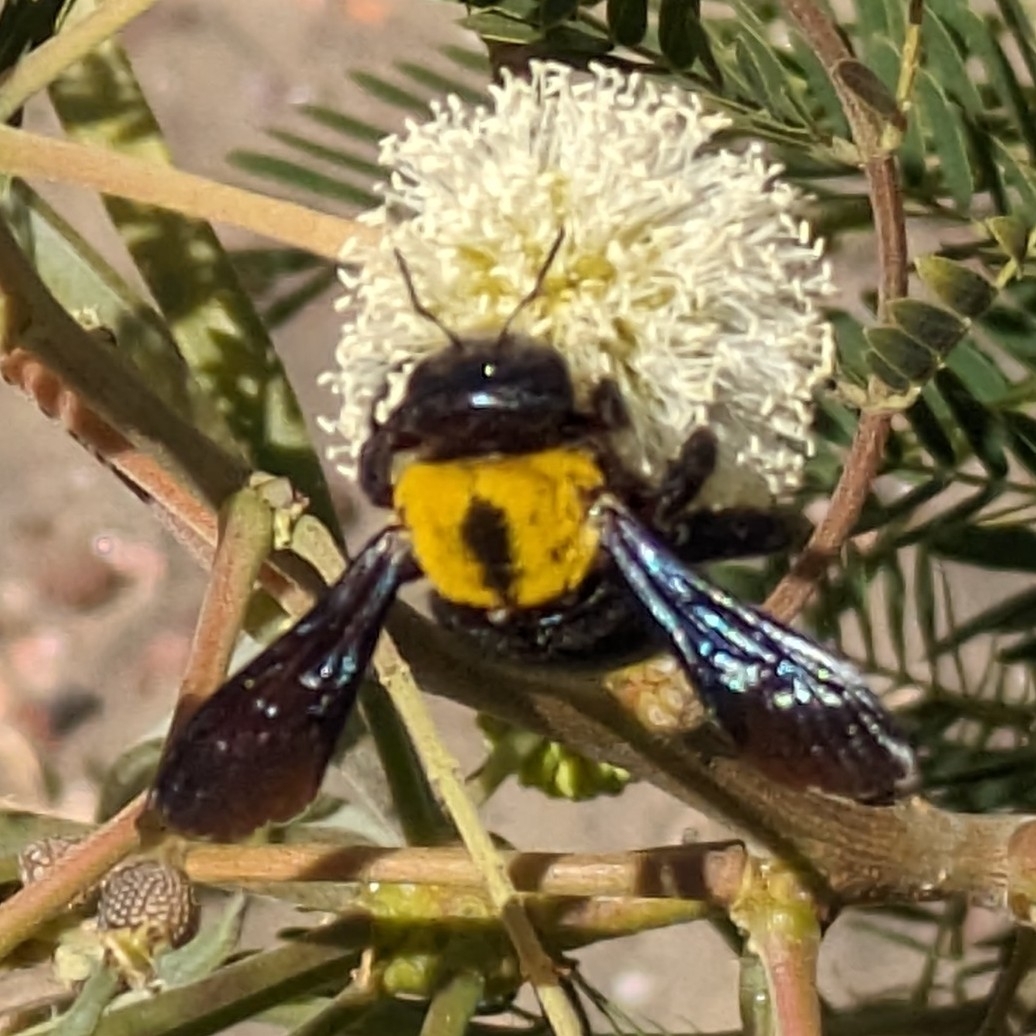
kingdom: Animalia
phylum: Arthropoda
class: Insecta
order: Hymenoptera
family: Apidae
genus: Xylocopa
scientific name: Xylocopa pubescens
